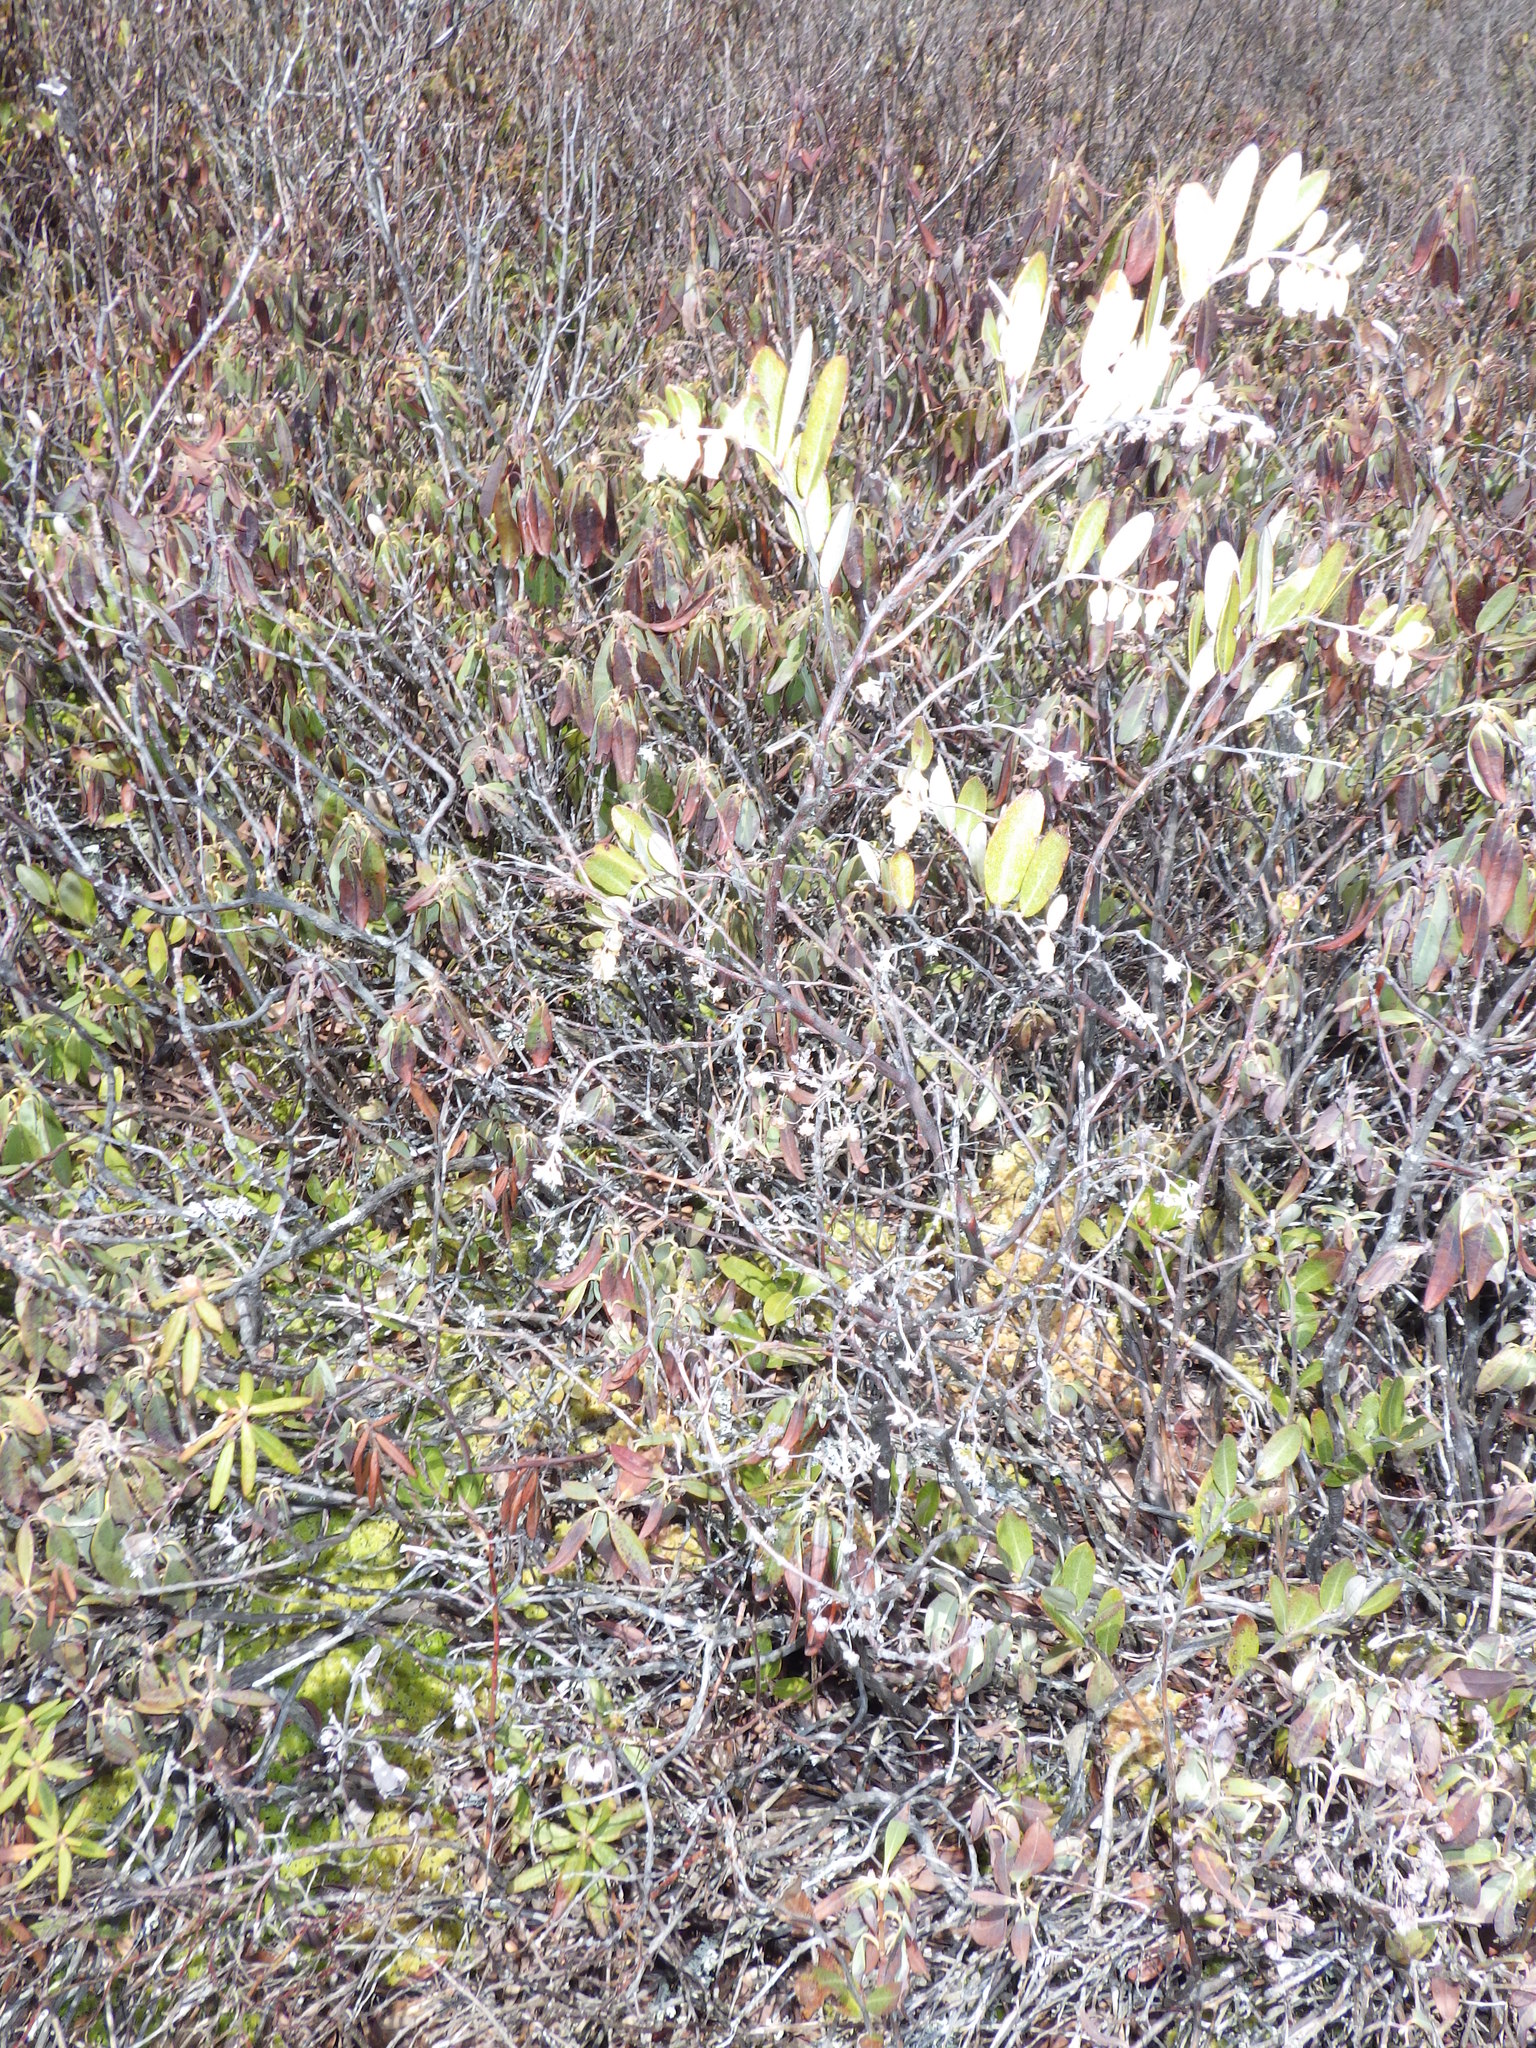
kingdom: Plantae
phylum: Tracheophyta
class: Magnoliopsida
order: Ericales
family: Ericaceae
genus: Chamaedaphne
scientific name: Chamaedaphne calyculata
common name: Leatherleaf
